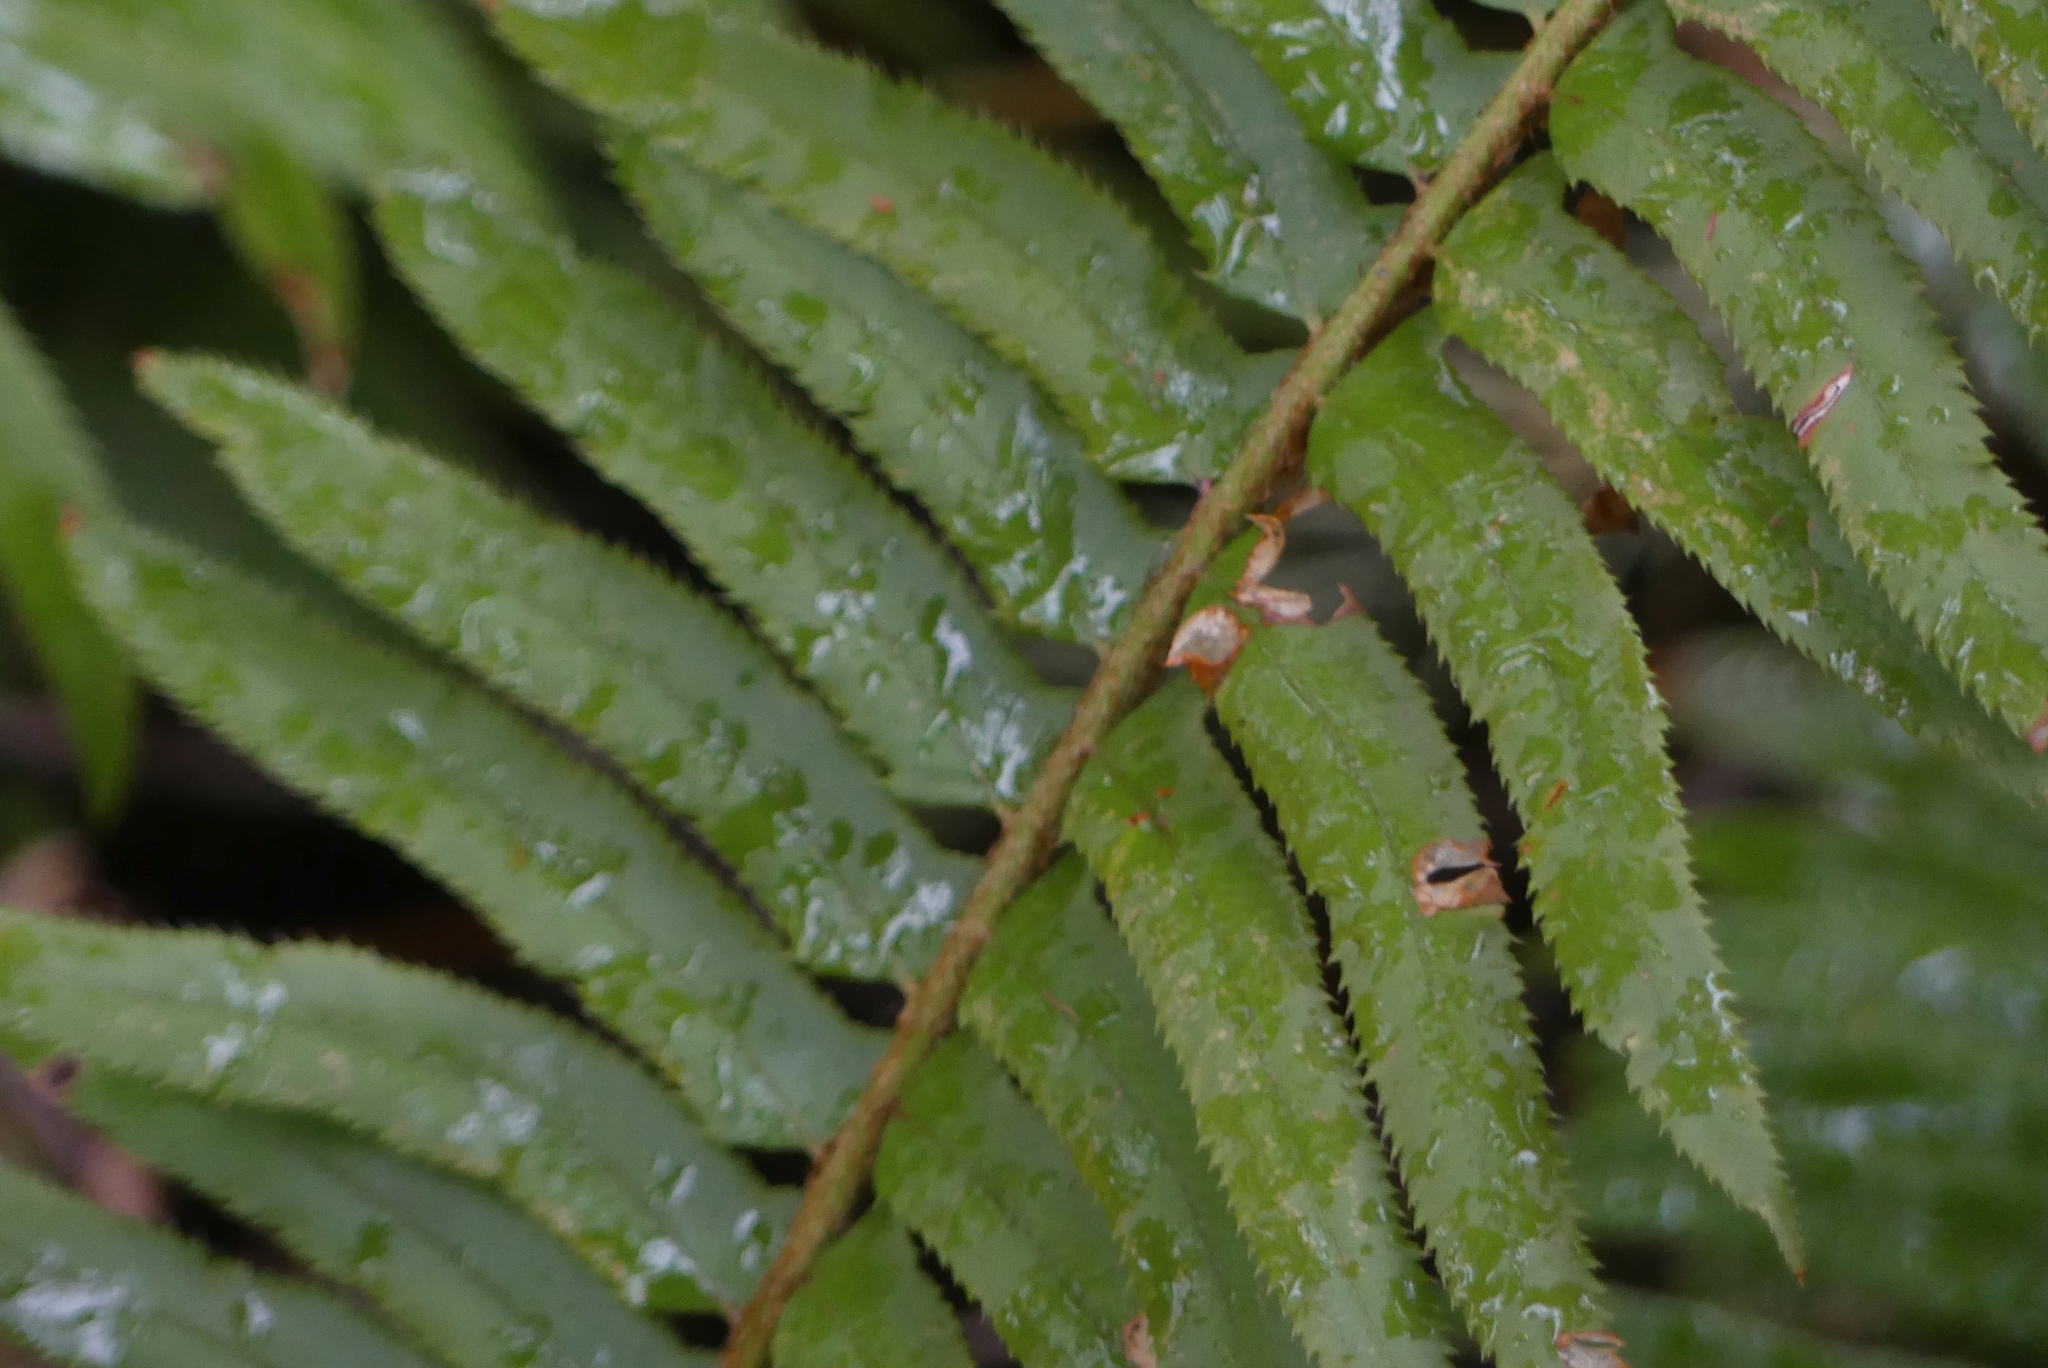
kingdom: Plantae
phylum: Tracheophyta
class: Polypodiopsida
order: Polypodiales
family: Dryopteridaceae
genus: Polystichum
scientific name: Polystichum munitum
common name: Western sword-fern
